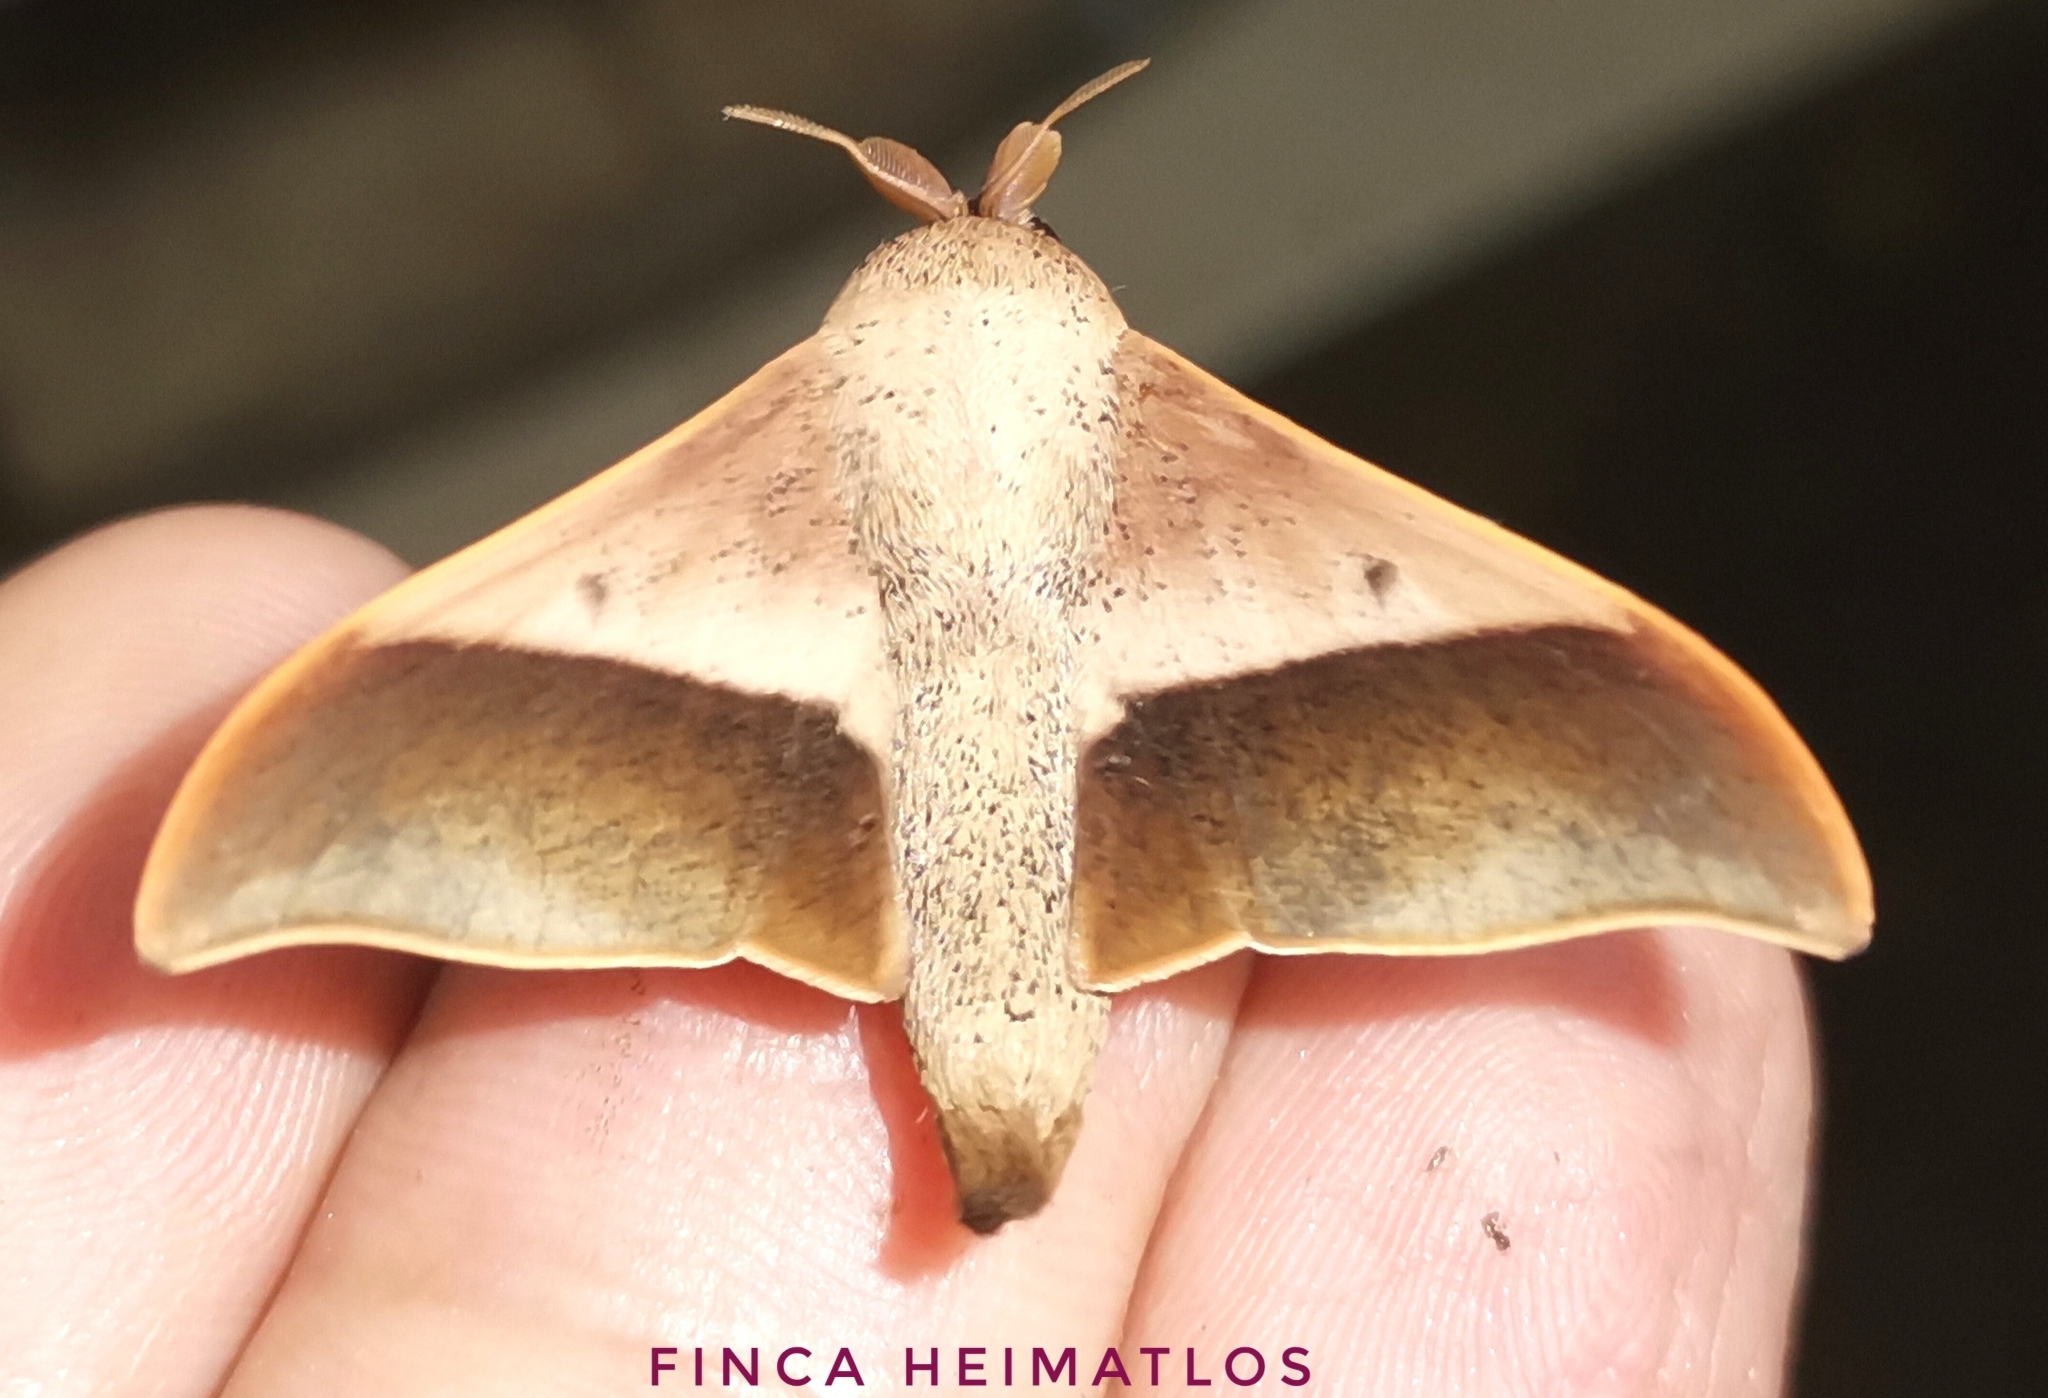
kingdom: Animalia
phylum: Arthropoda
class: Insecta
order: Lepidoptera
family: Mimallonidae
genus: Psychocampa
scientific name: Psychocampa kohlli
